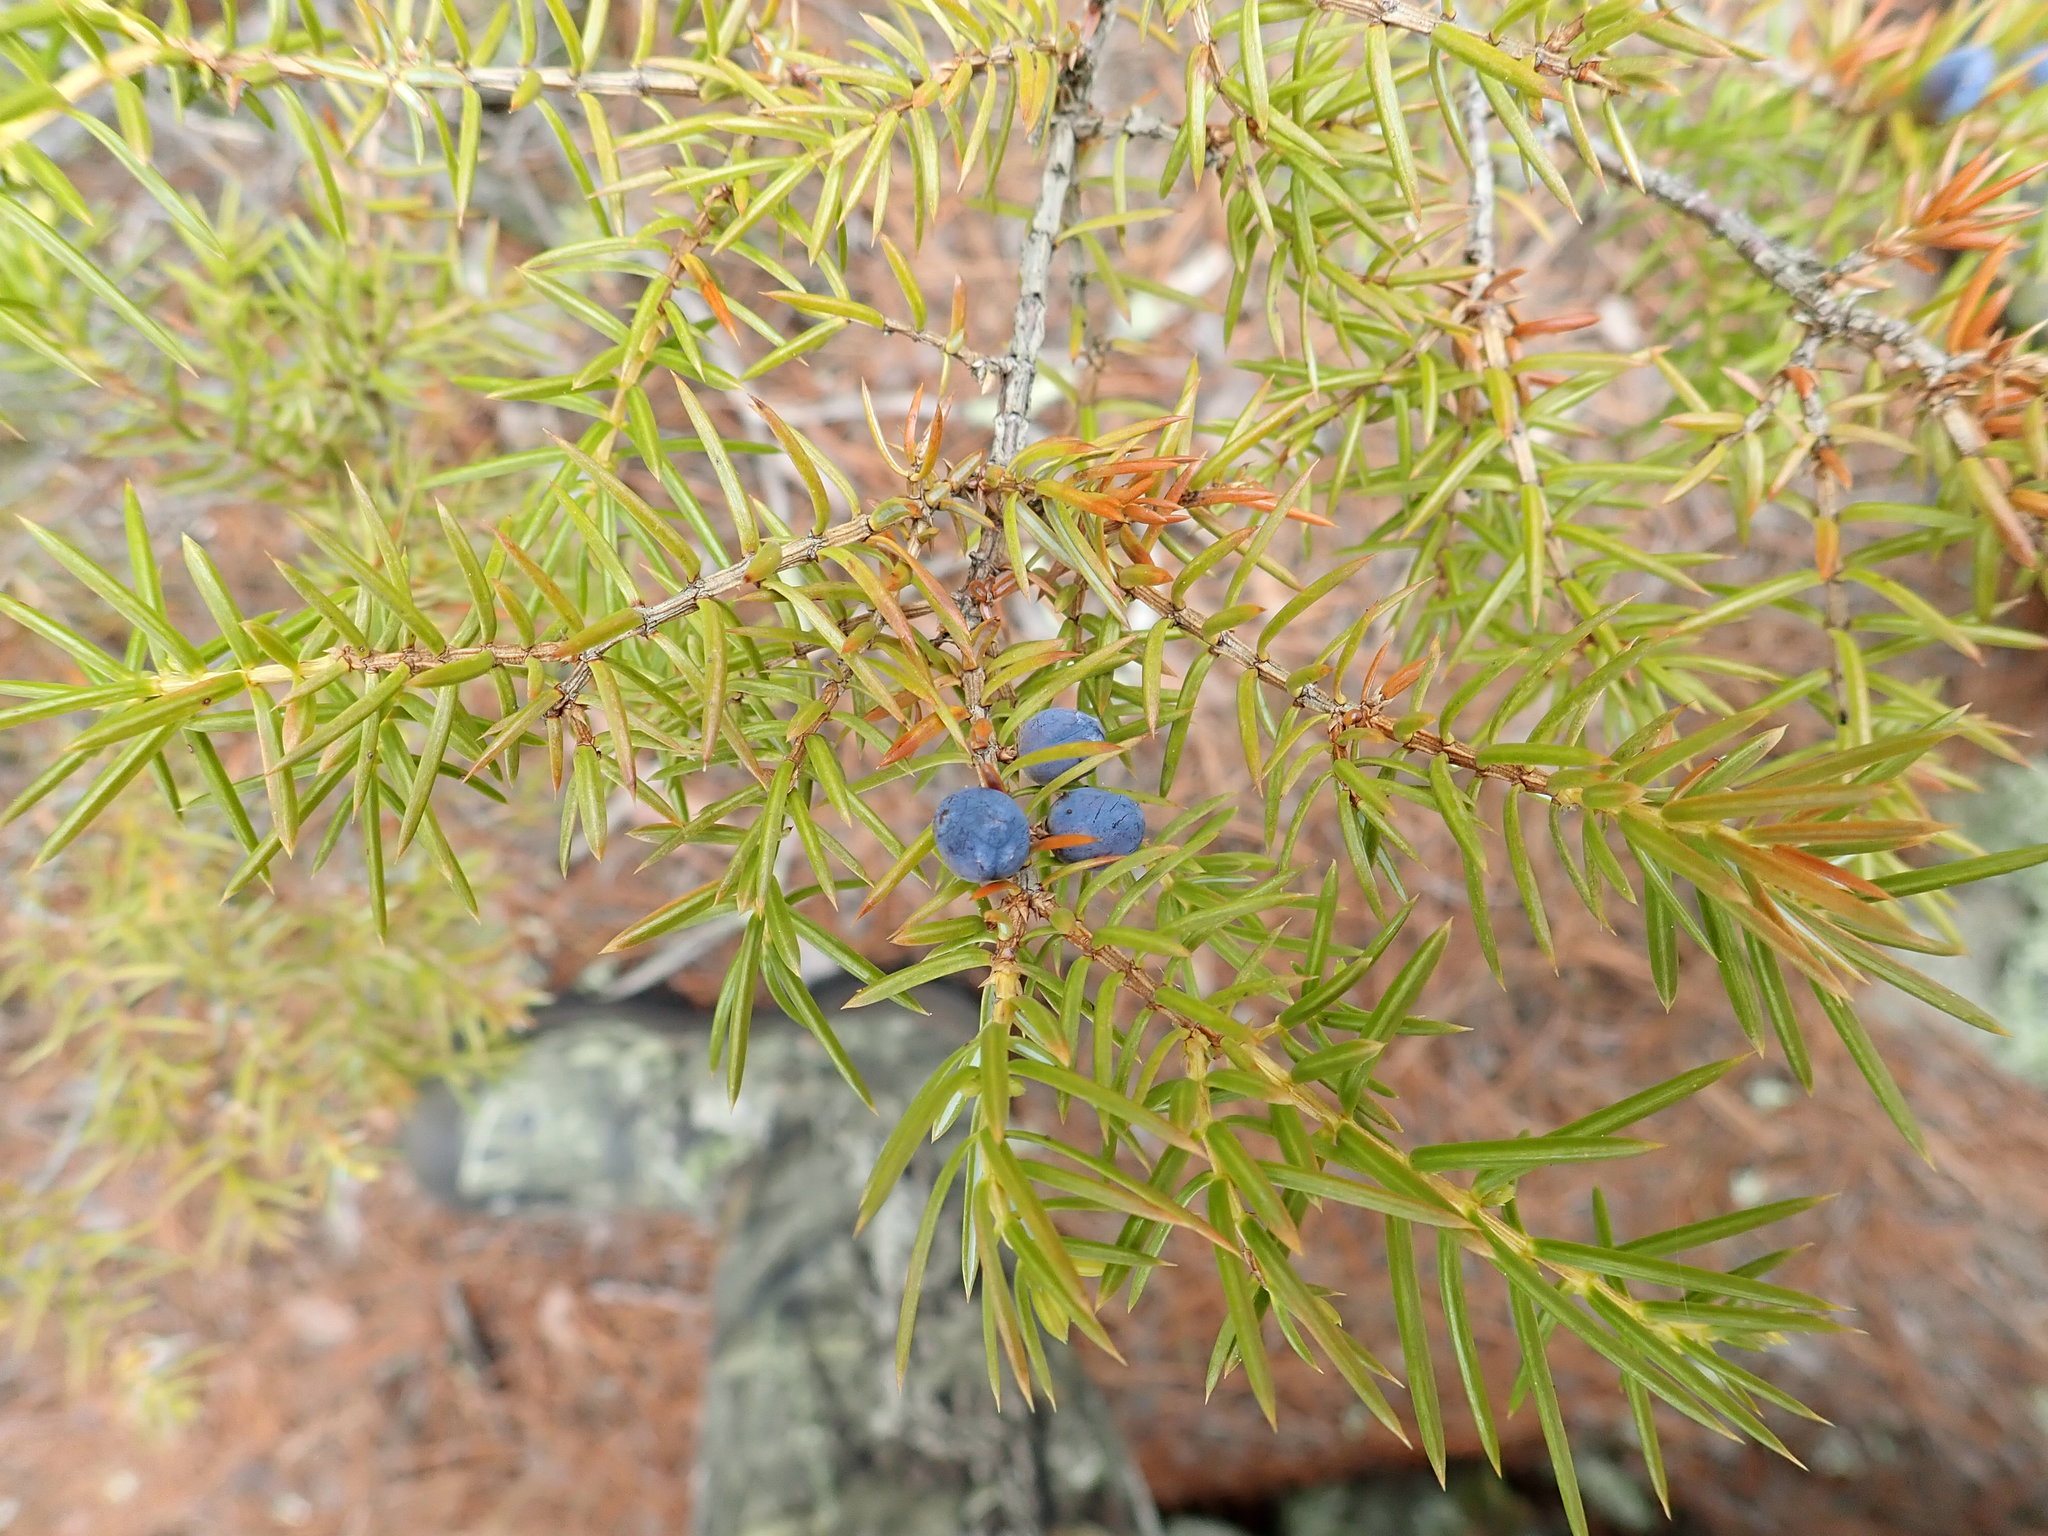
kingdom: Plantae
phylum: Tracheophyta
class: Pinopsida
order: Pinales
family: Cupressaceae
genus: Juniperus
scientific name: Juniperus communis
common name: Common juniper
